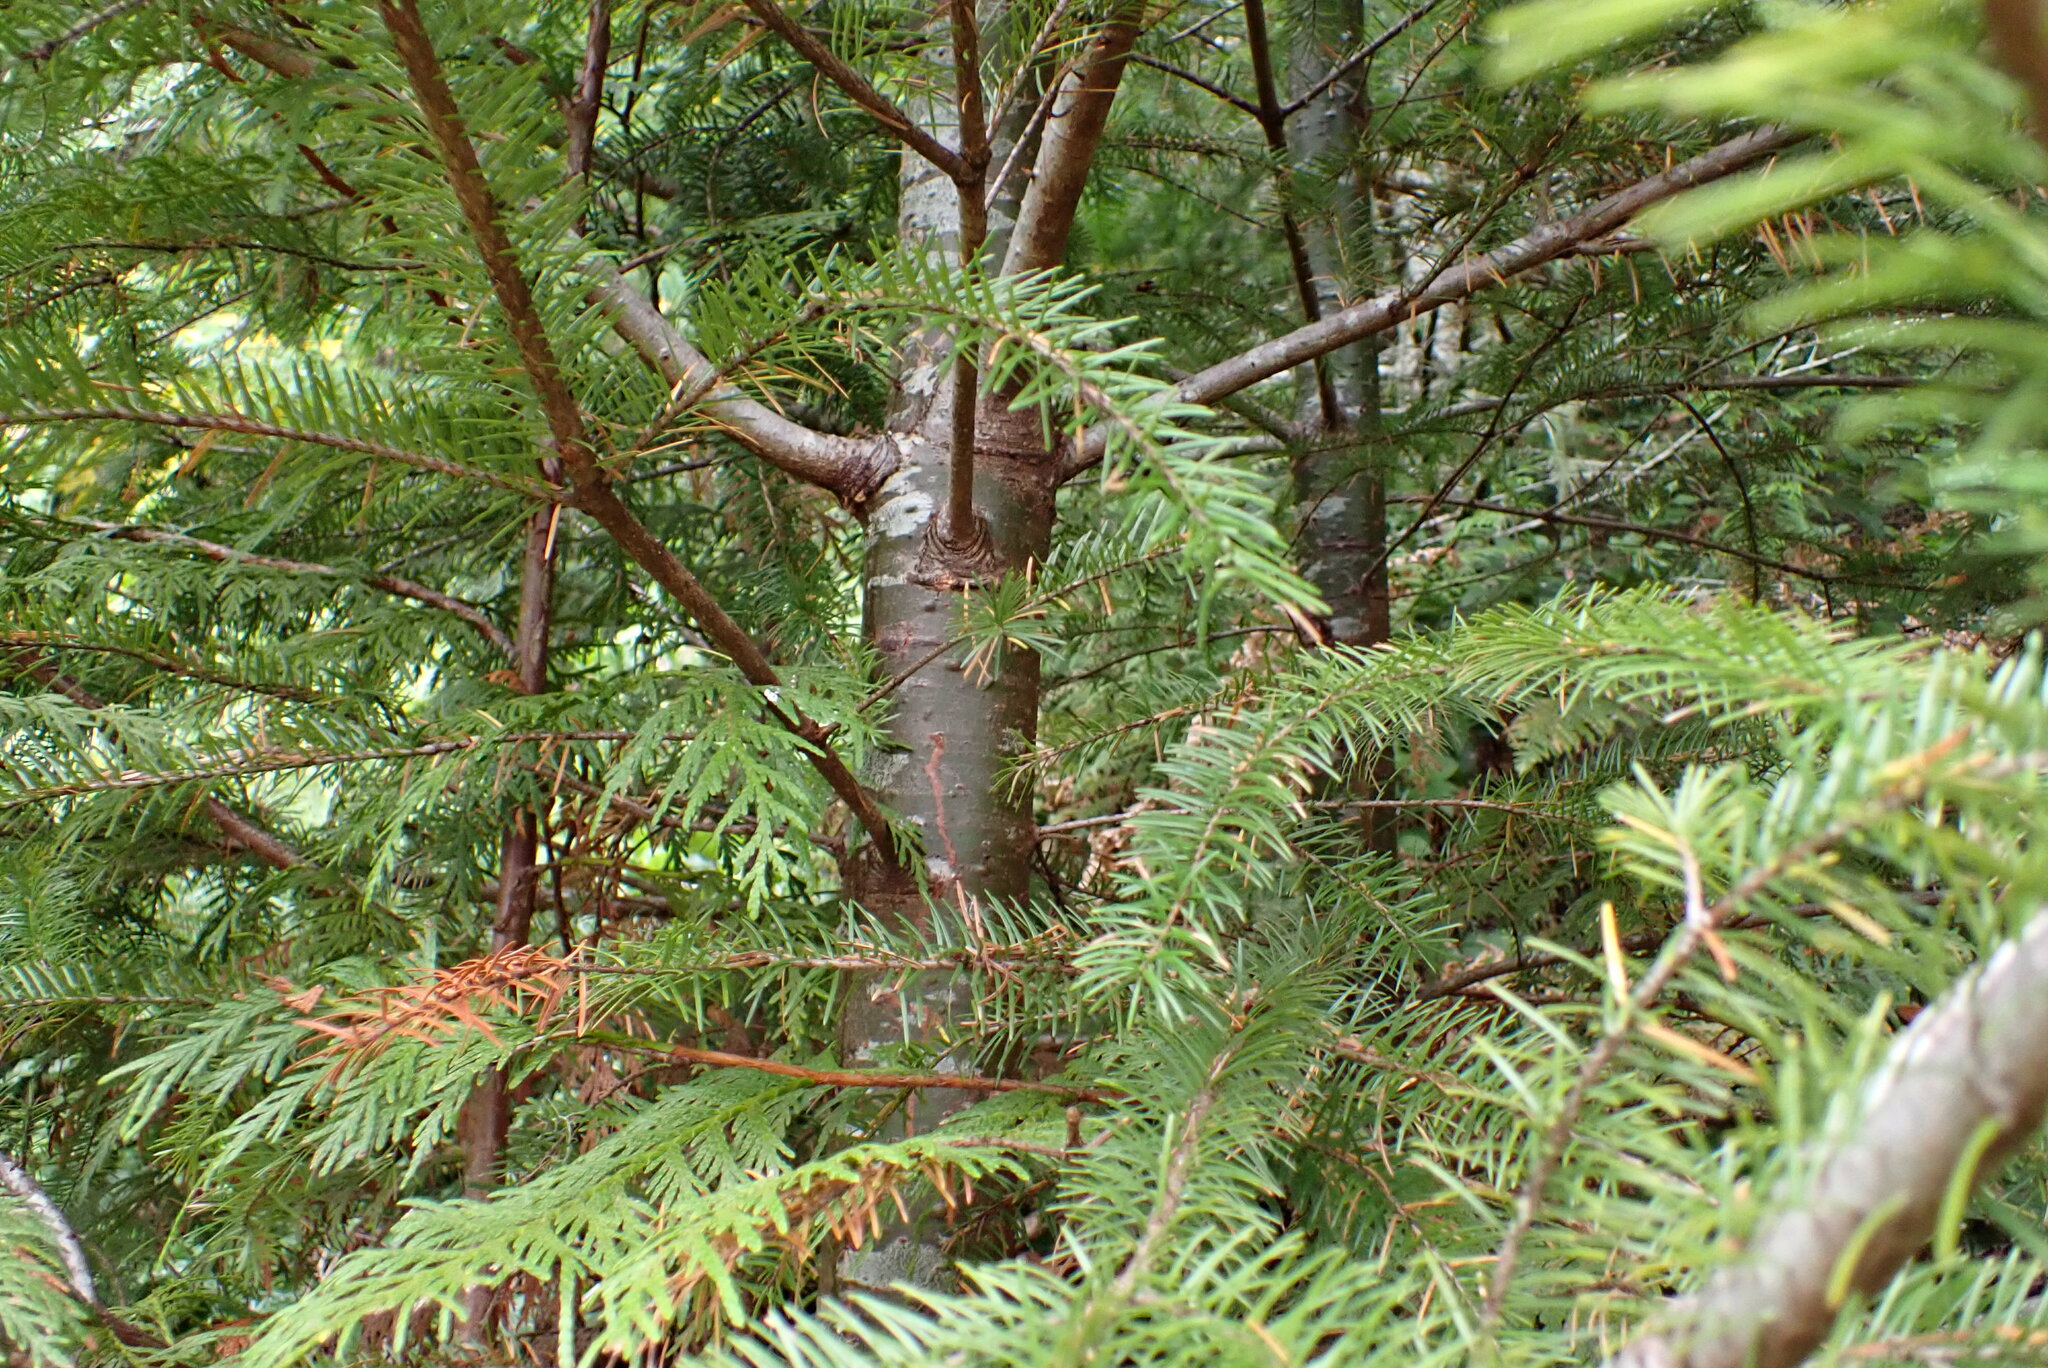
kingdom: Plantae
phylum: Tracheophyta
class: Pinopsida
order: Pinales
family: Pinaceae
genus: Pseudotsuga
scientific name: Pseudotsuga menziesii
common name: Douglas fir
